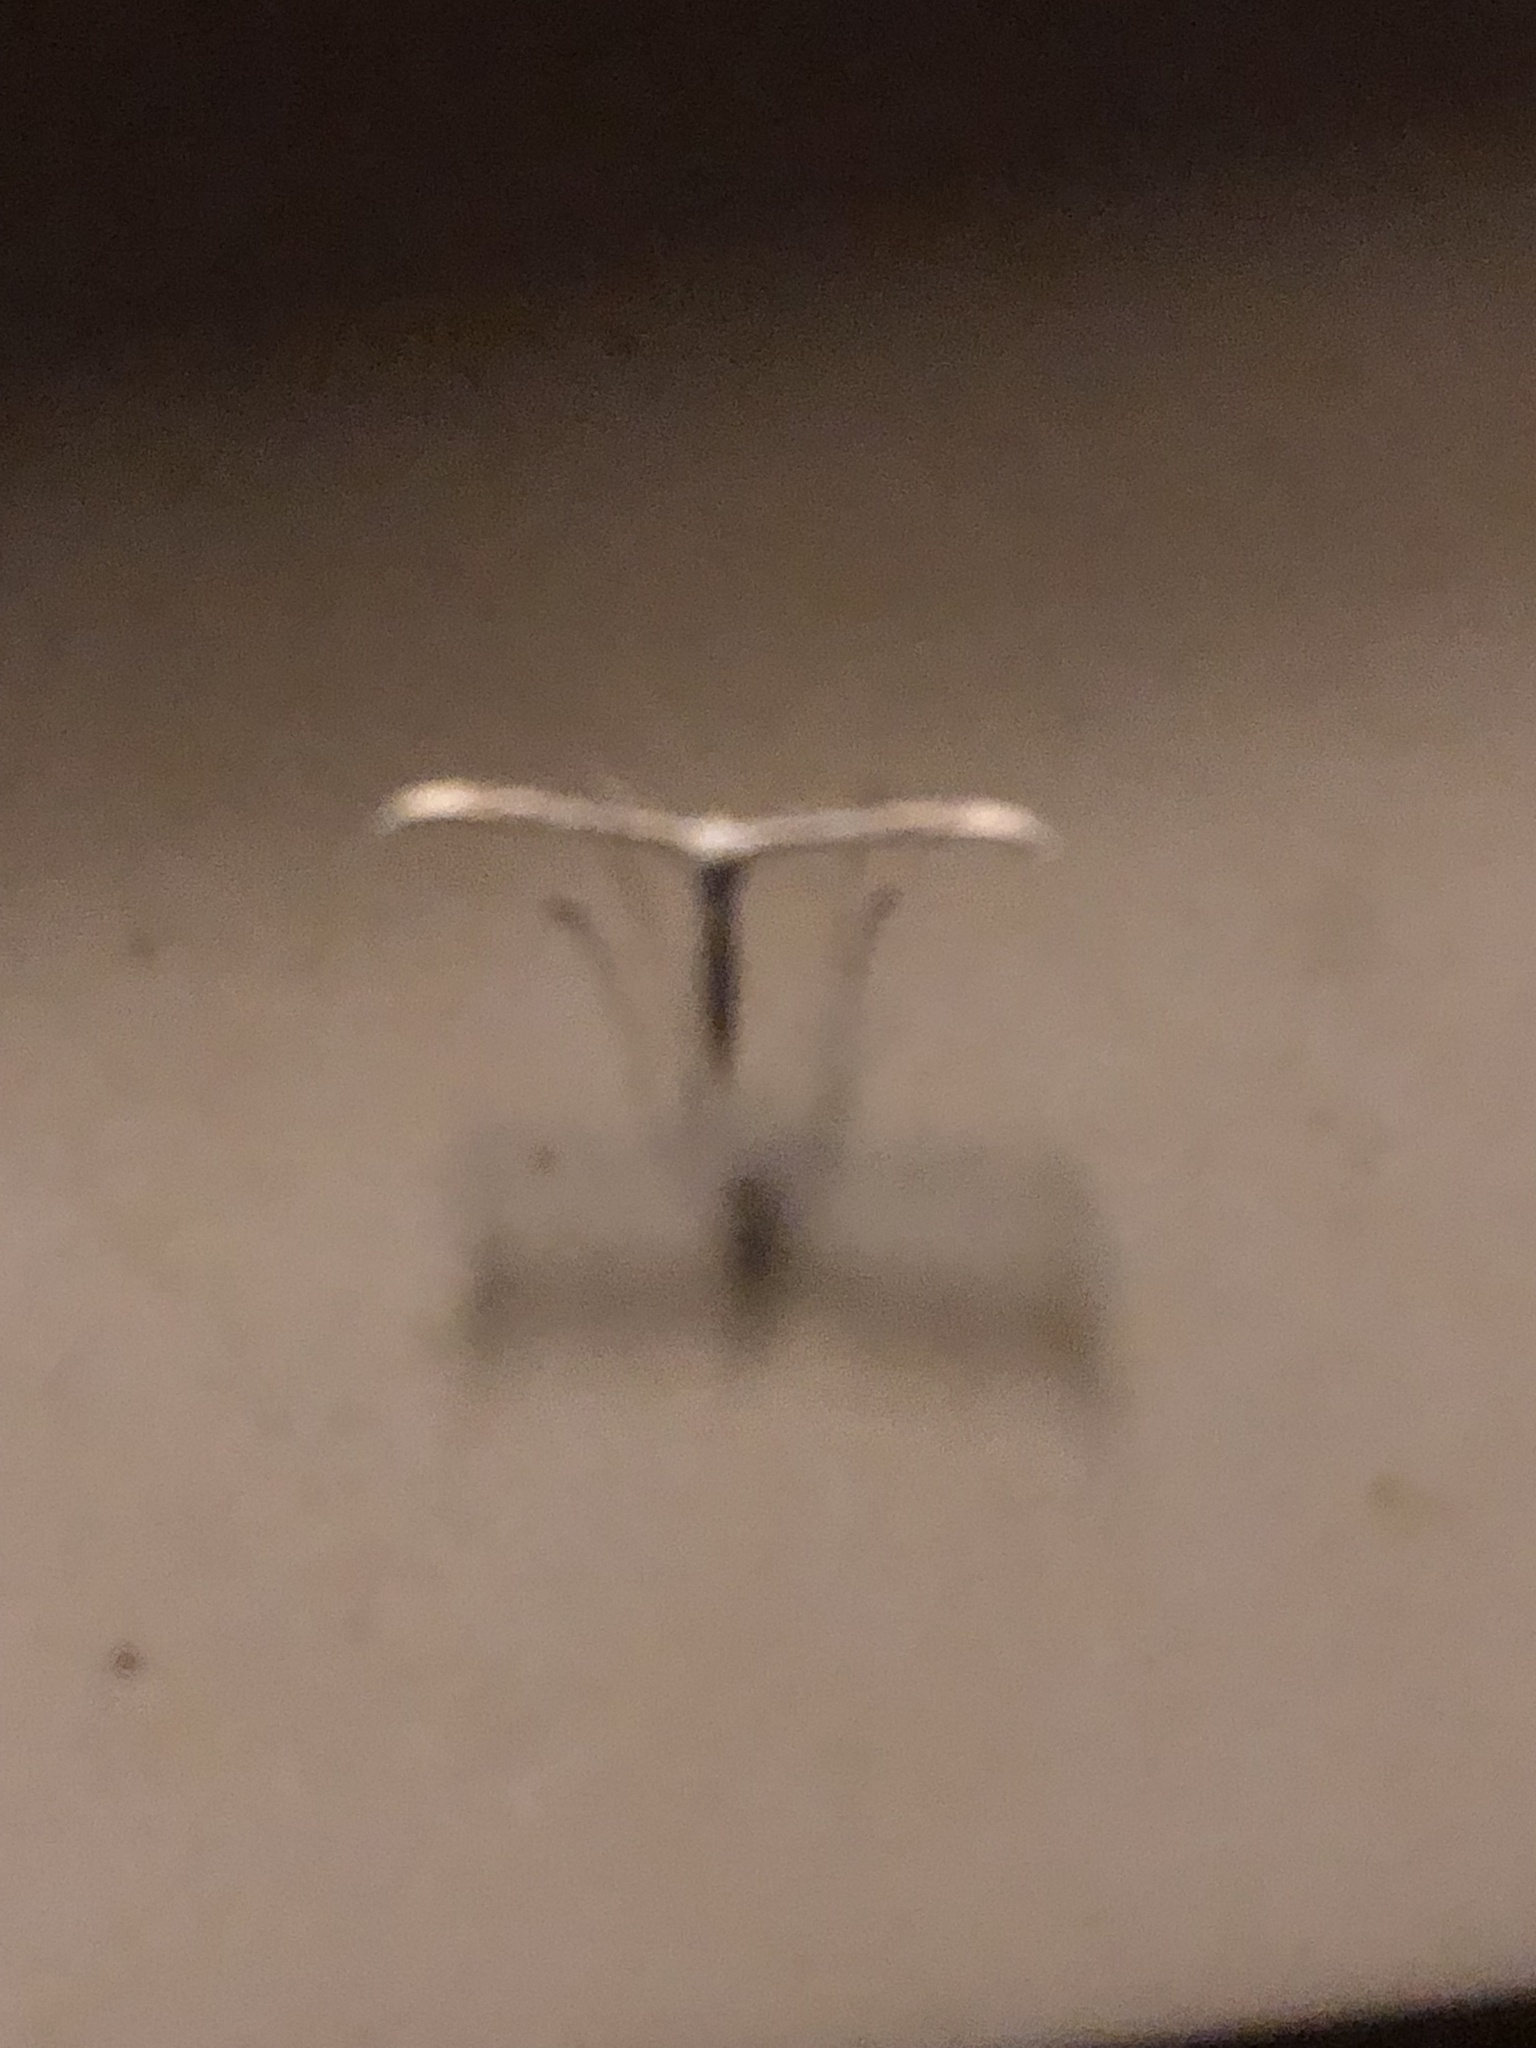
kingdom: Animalia
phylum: Arthropoda
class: Insecta
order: Lepidoptera
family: Pterophoridae
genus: Emmelina
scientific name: Emmelina monodactyla
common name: Common plume
